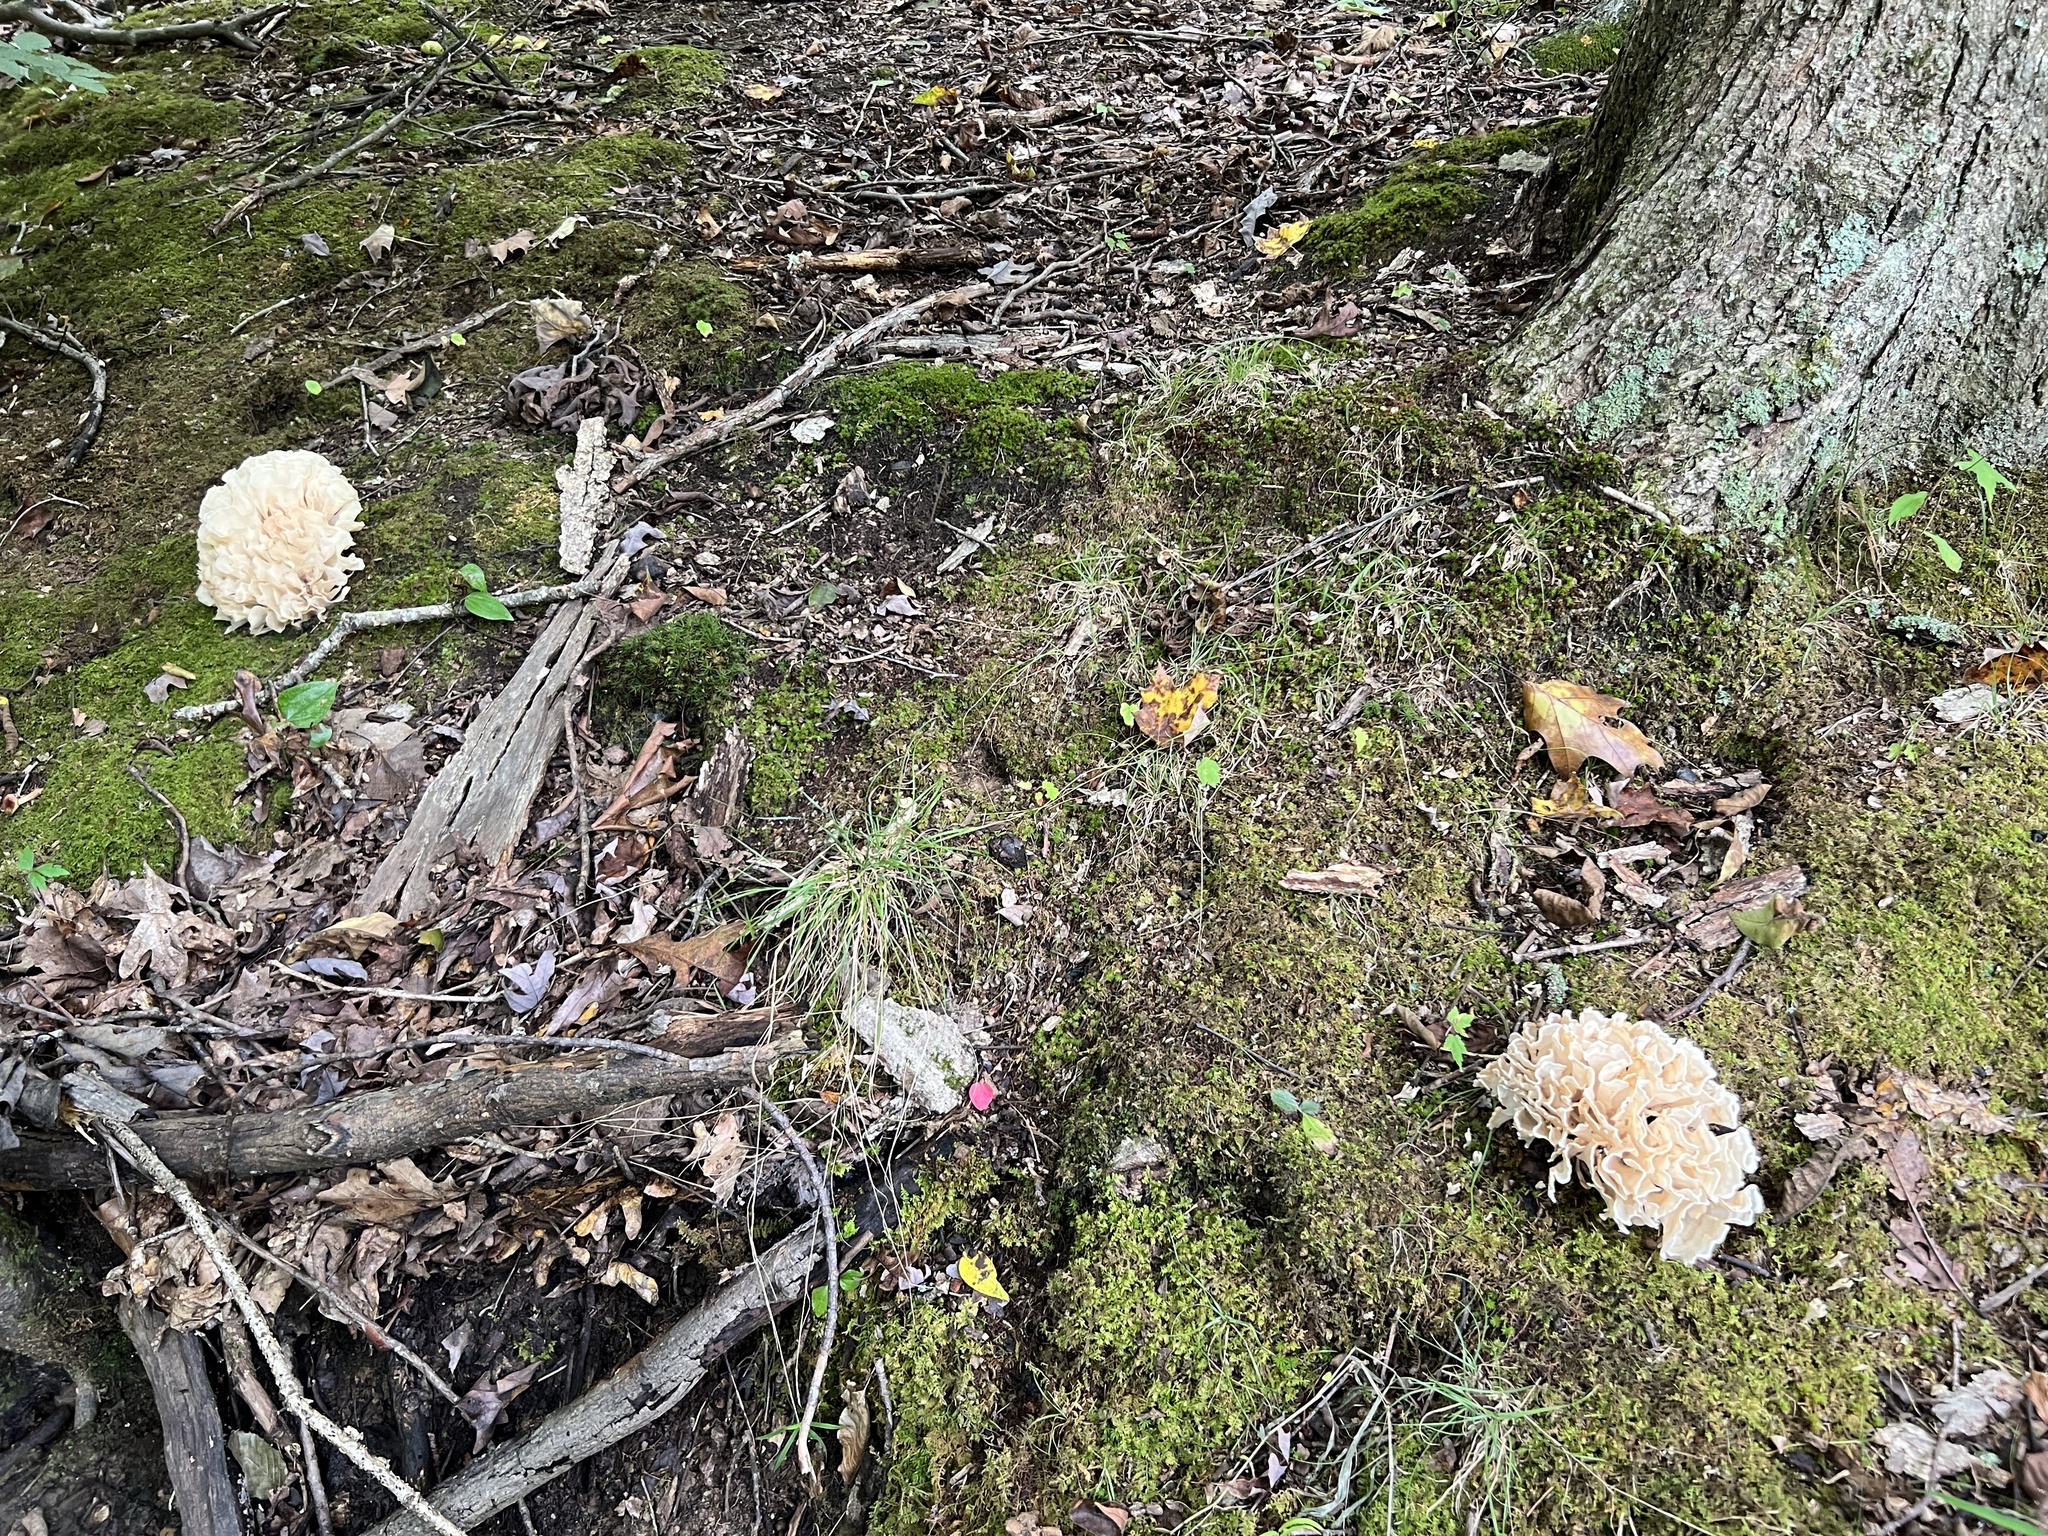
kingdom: Fungi
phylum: Basidiomycota
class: Agaricomycetes
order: Polyporales
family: Sparassidaceae
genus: Sparassis
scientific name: Sparassis spathulata
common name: Eastern cauliflower mushroom
